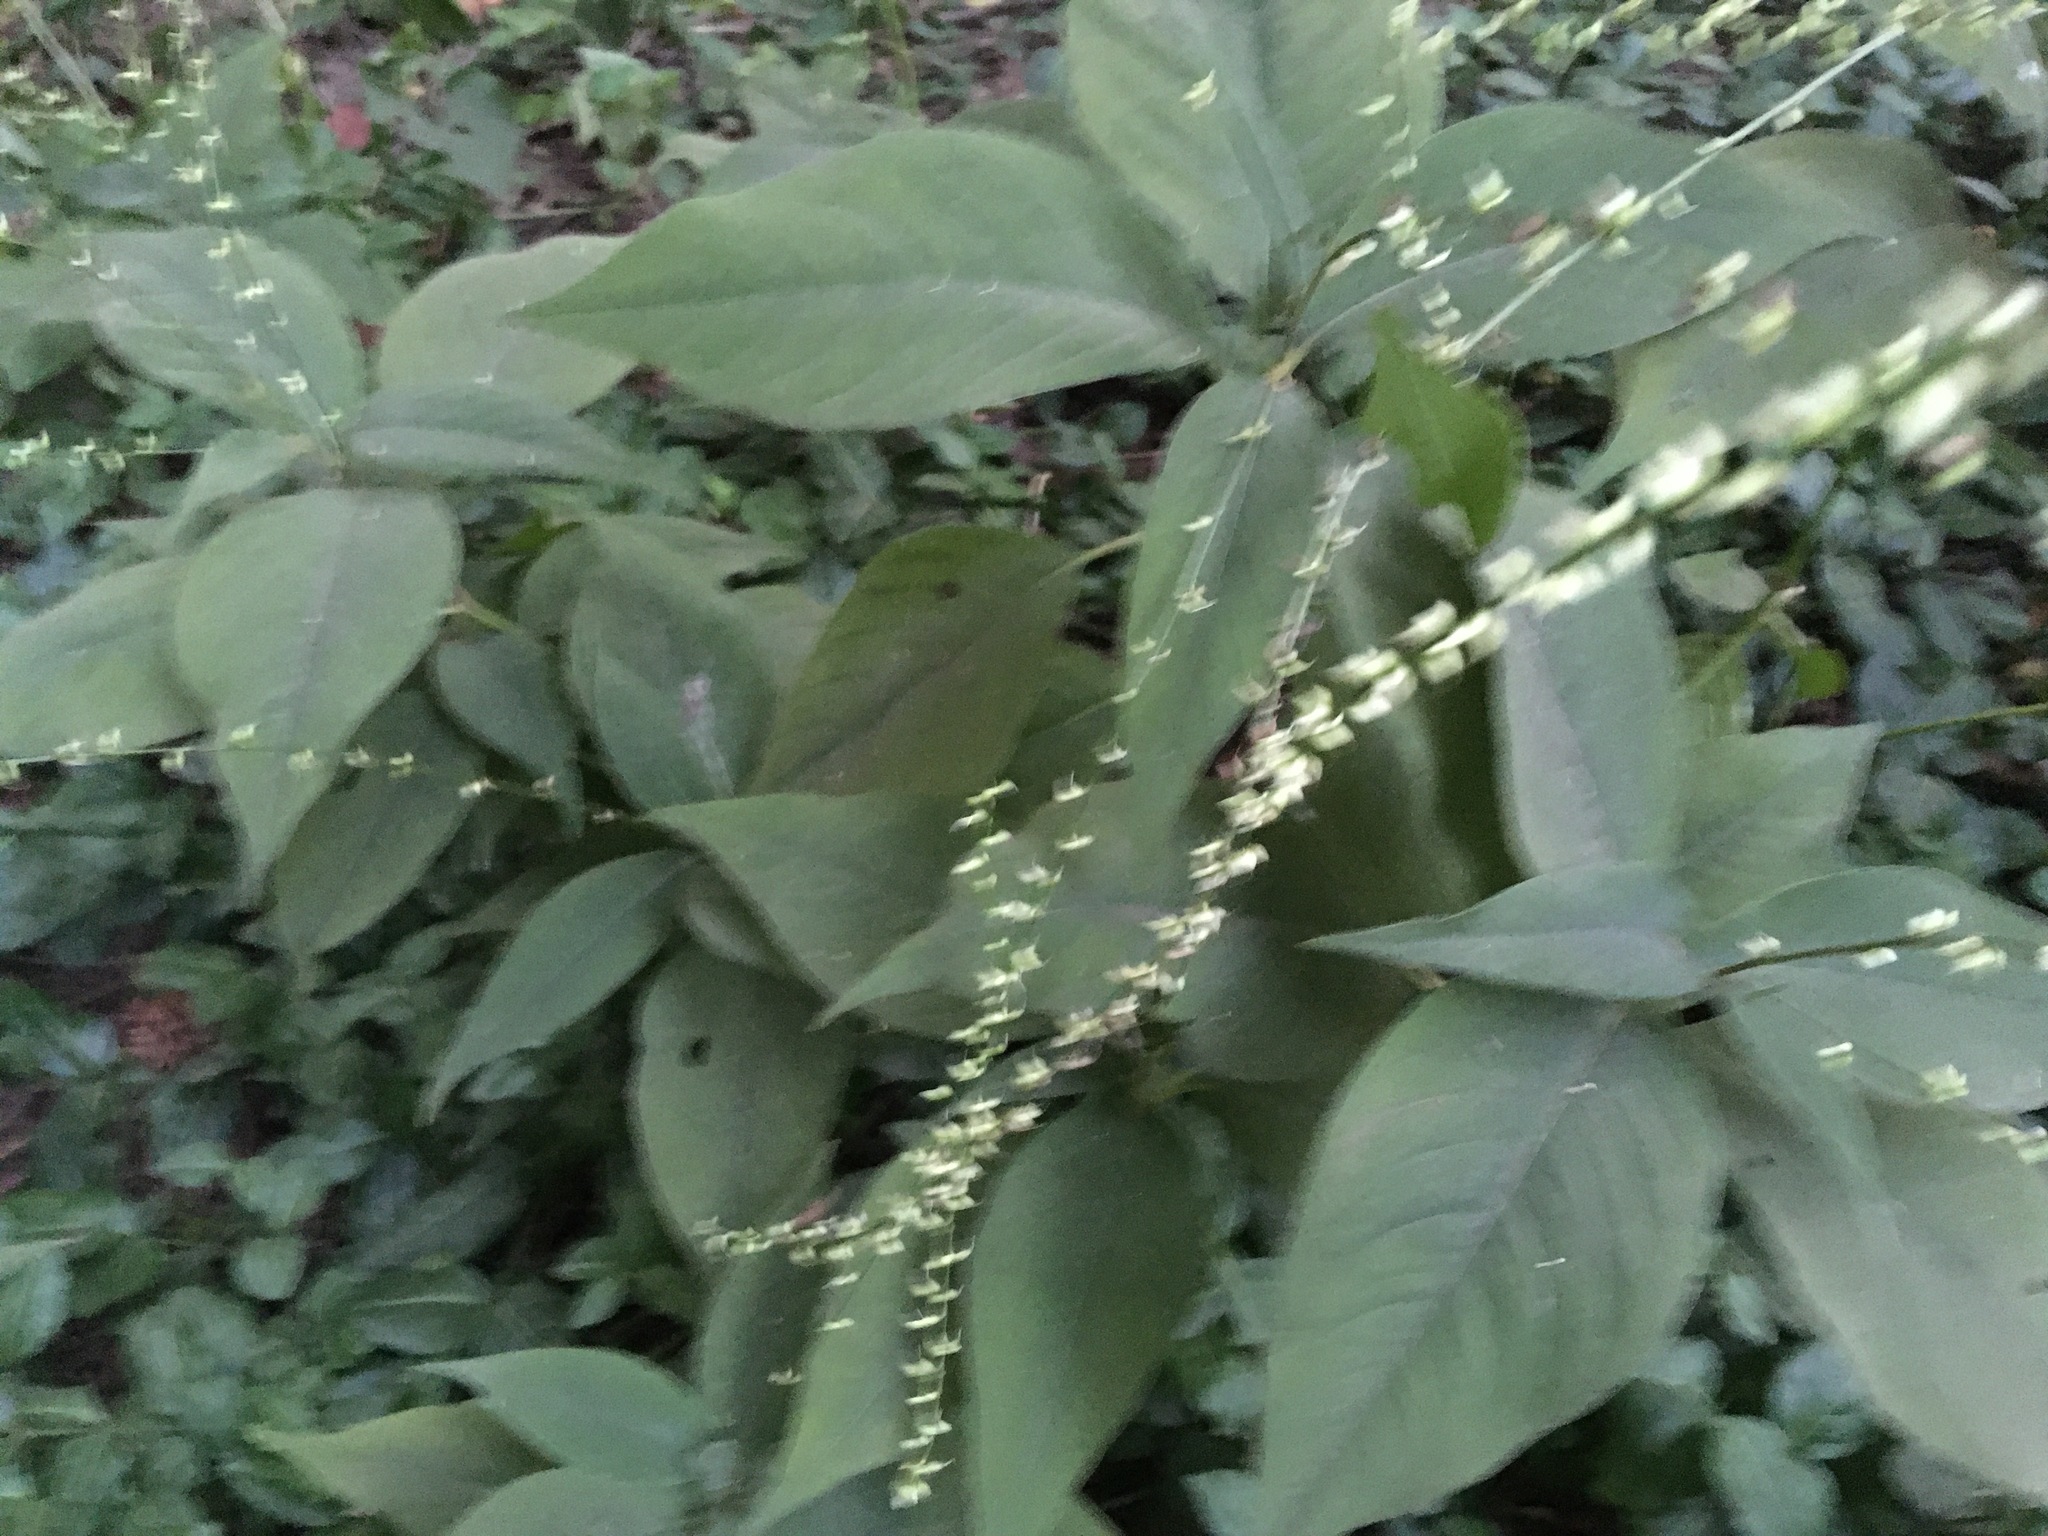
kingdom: Plantae
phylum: Tracheophyta
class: Magnoliopsida
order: Caryophyllales
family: Polygonaceae
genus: Persicaria
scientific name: Persicaria virginiana
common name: Jumpseed
